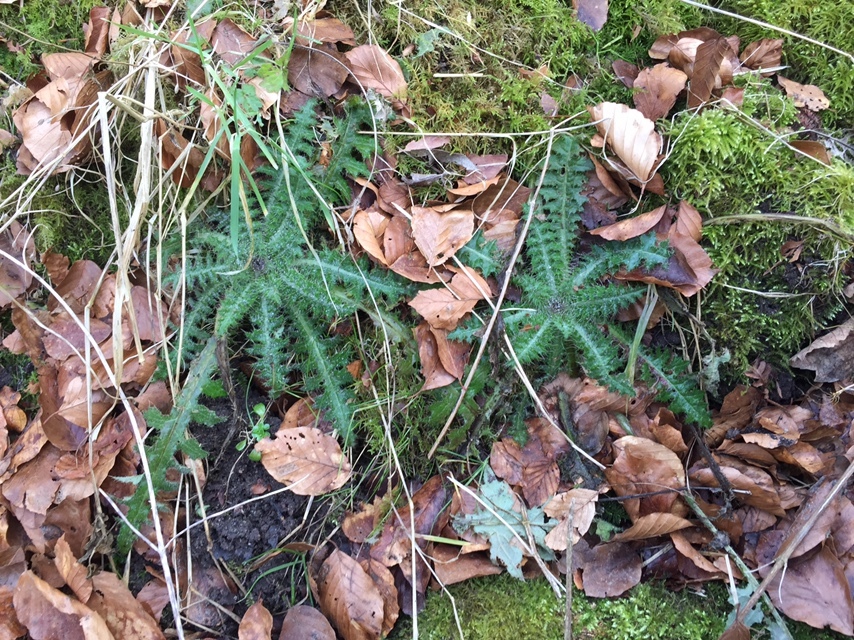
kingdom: Plantae
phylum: Tracheophyta
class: Magnoliopsida
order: Asterales
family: Asteraceae
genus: Cirsium
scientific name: Cirsium palustre
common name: Marsh thistle
